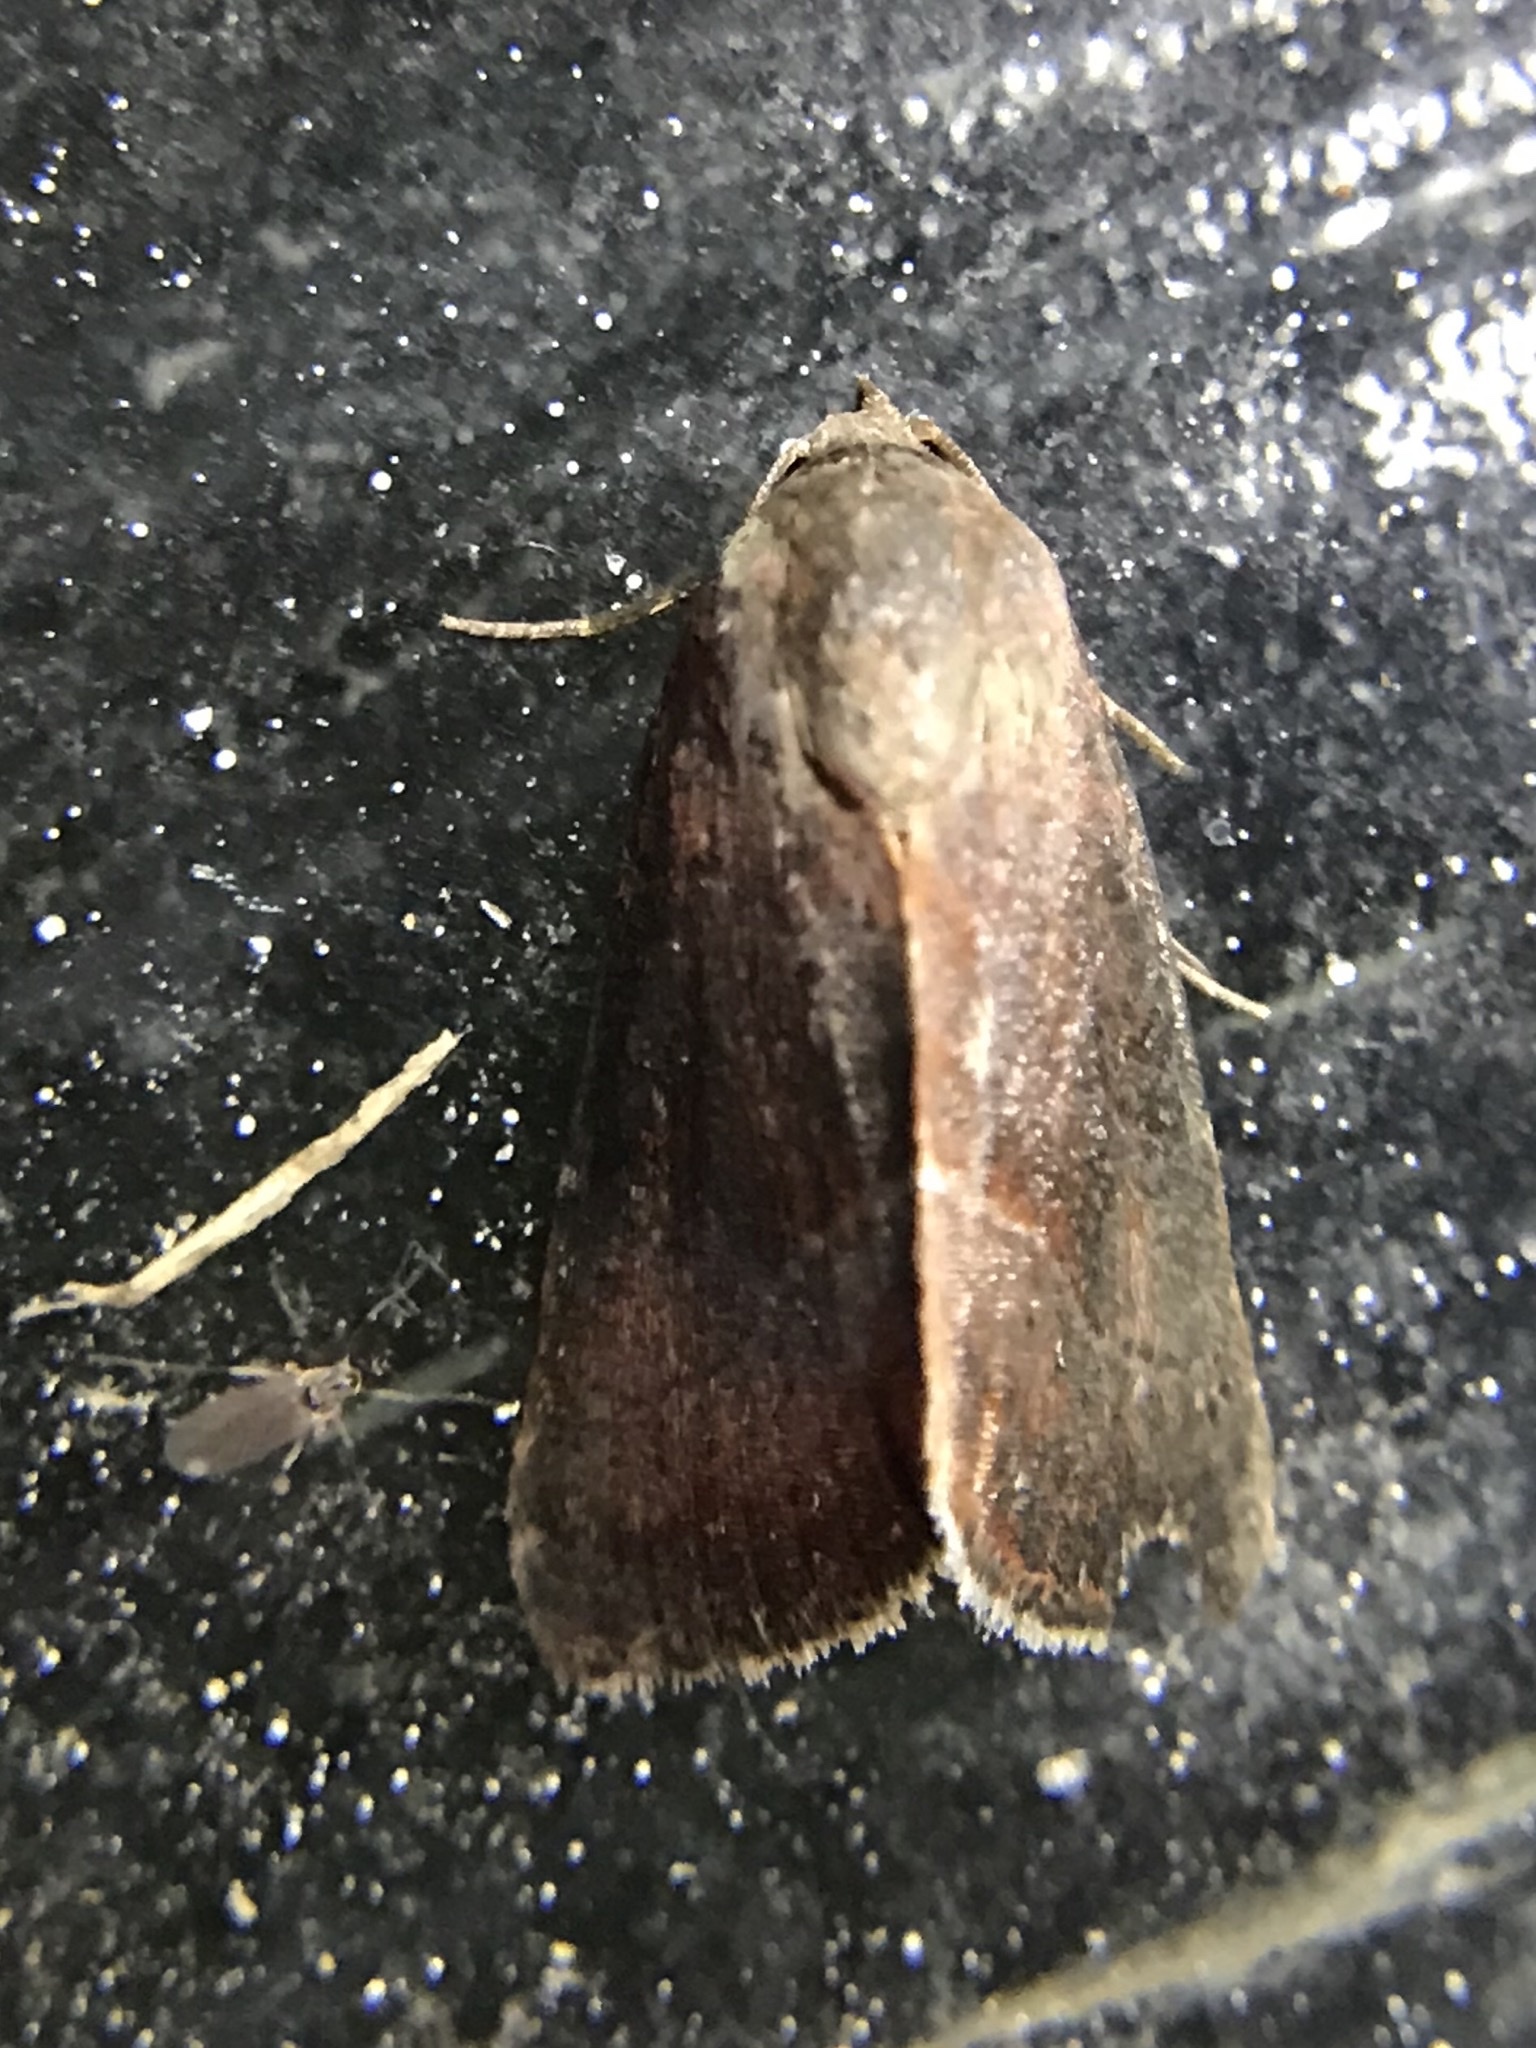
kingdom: Animalia
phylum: Arthropoda
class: Insecta
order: Lepidoptera
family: Noctuidae
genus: Galgula
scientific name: Galgula partita
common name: Wedgeling
